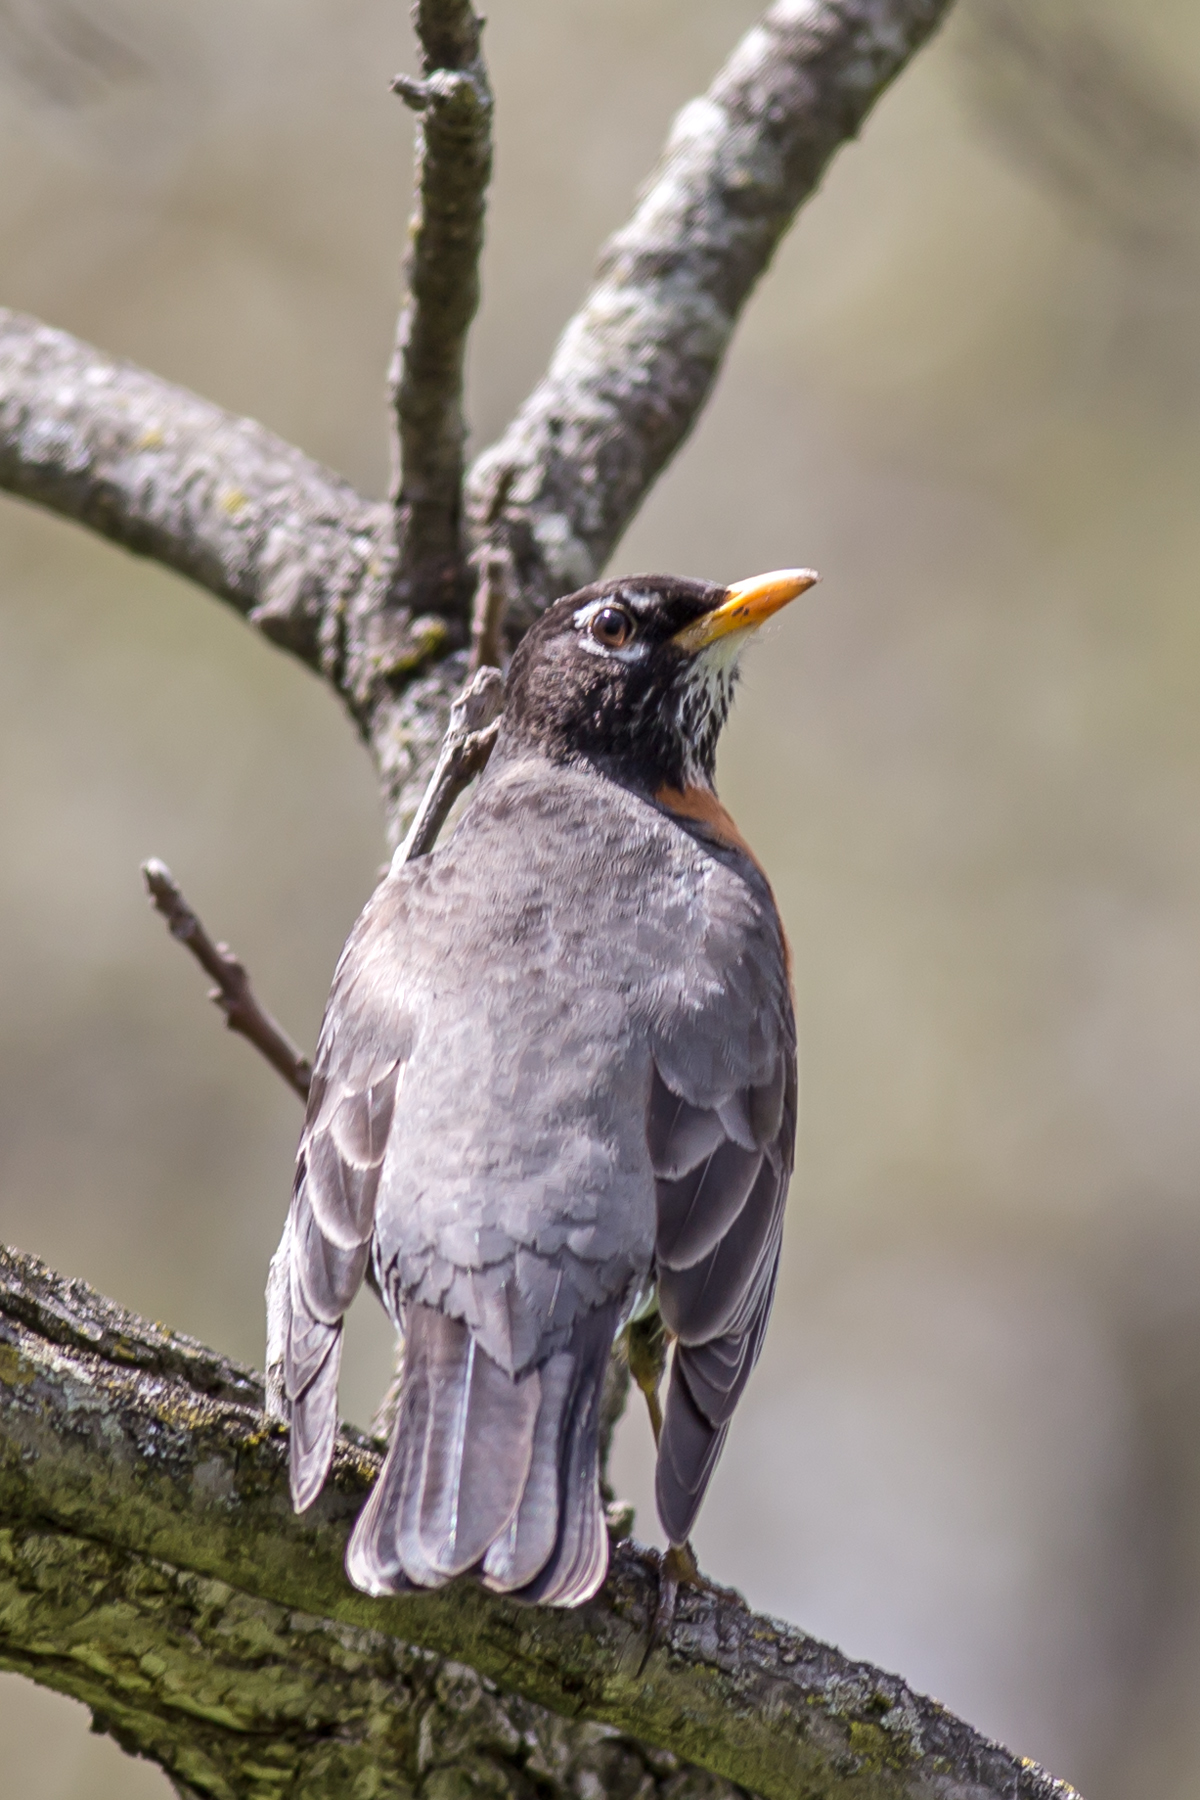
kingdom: Animalia
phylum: Chordata
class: Aves
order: Passeriformes
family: Turdidae
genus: Turdus
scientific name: Turdus migratorius
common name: American robin
